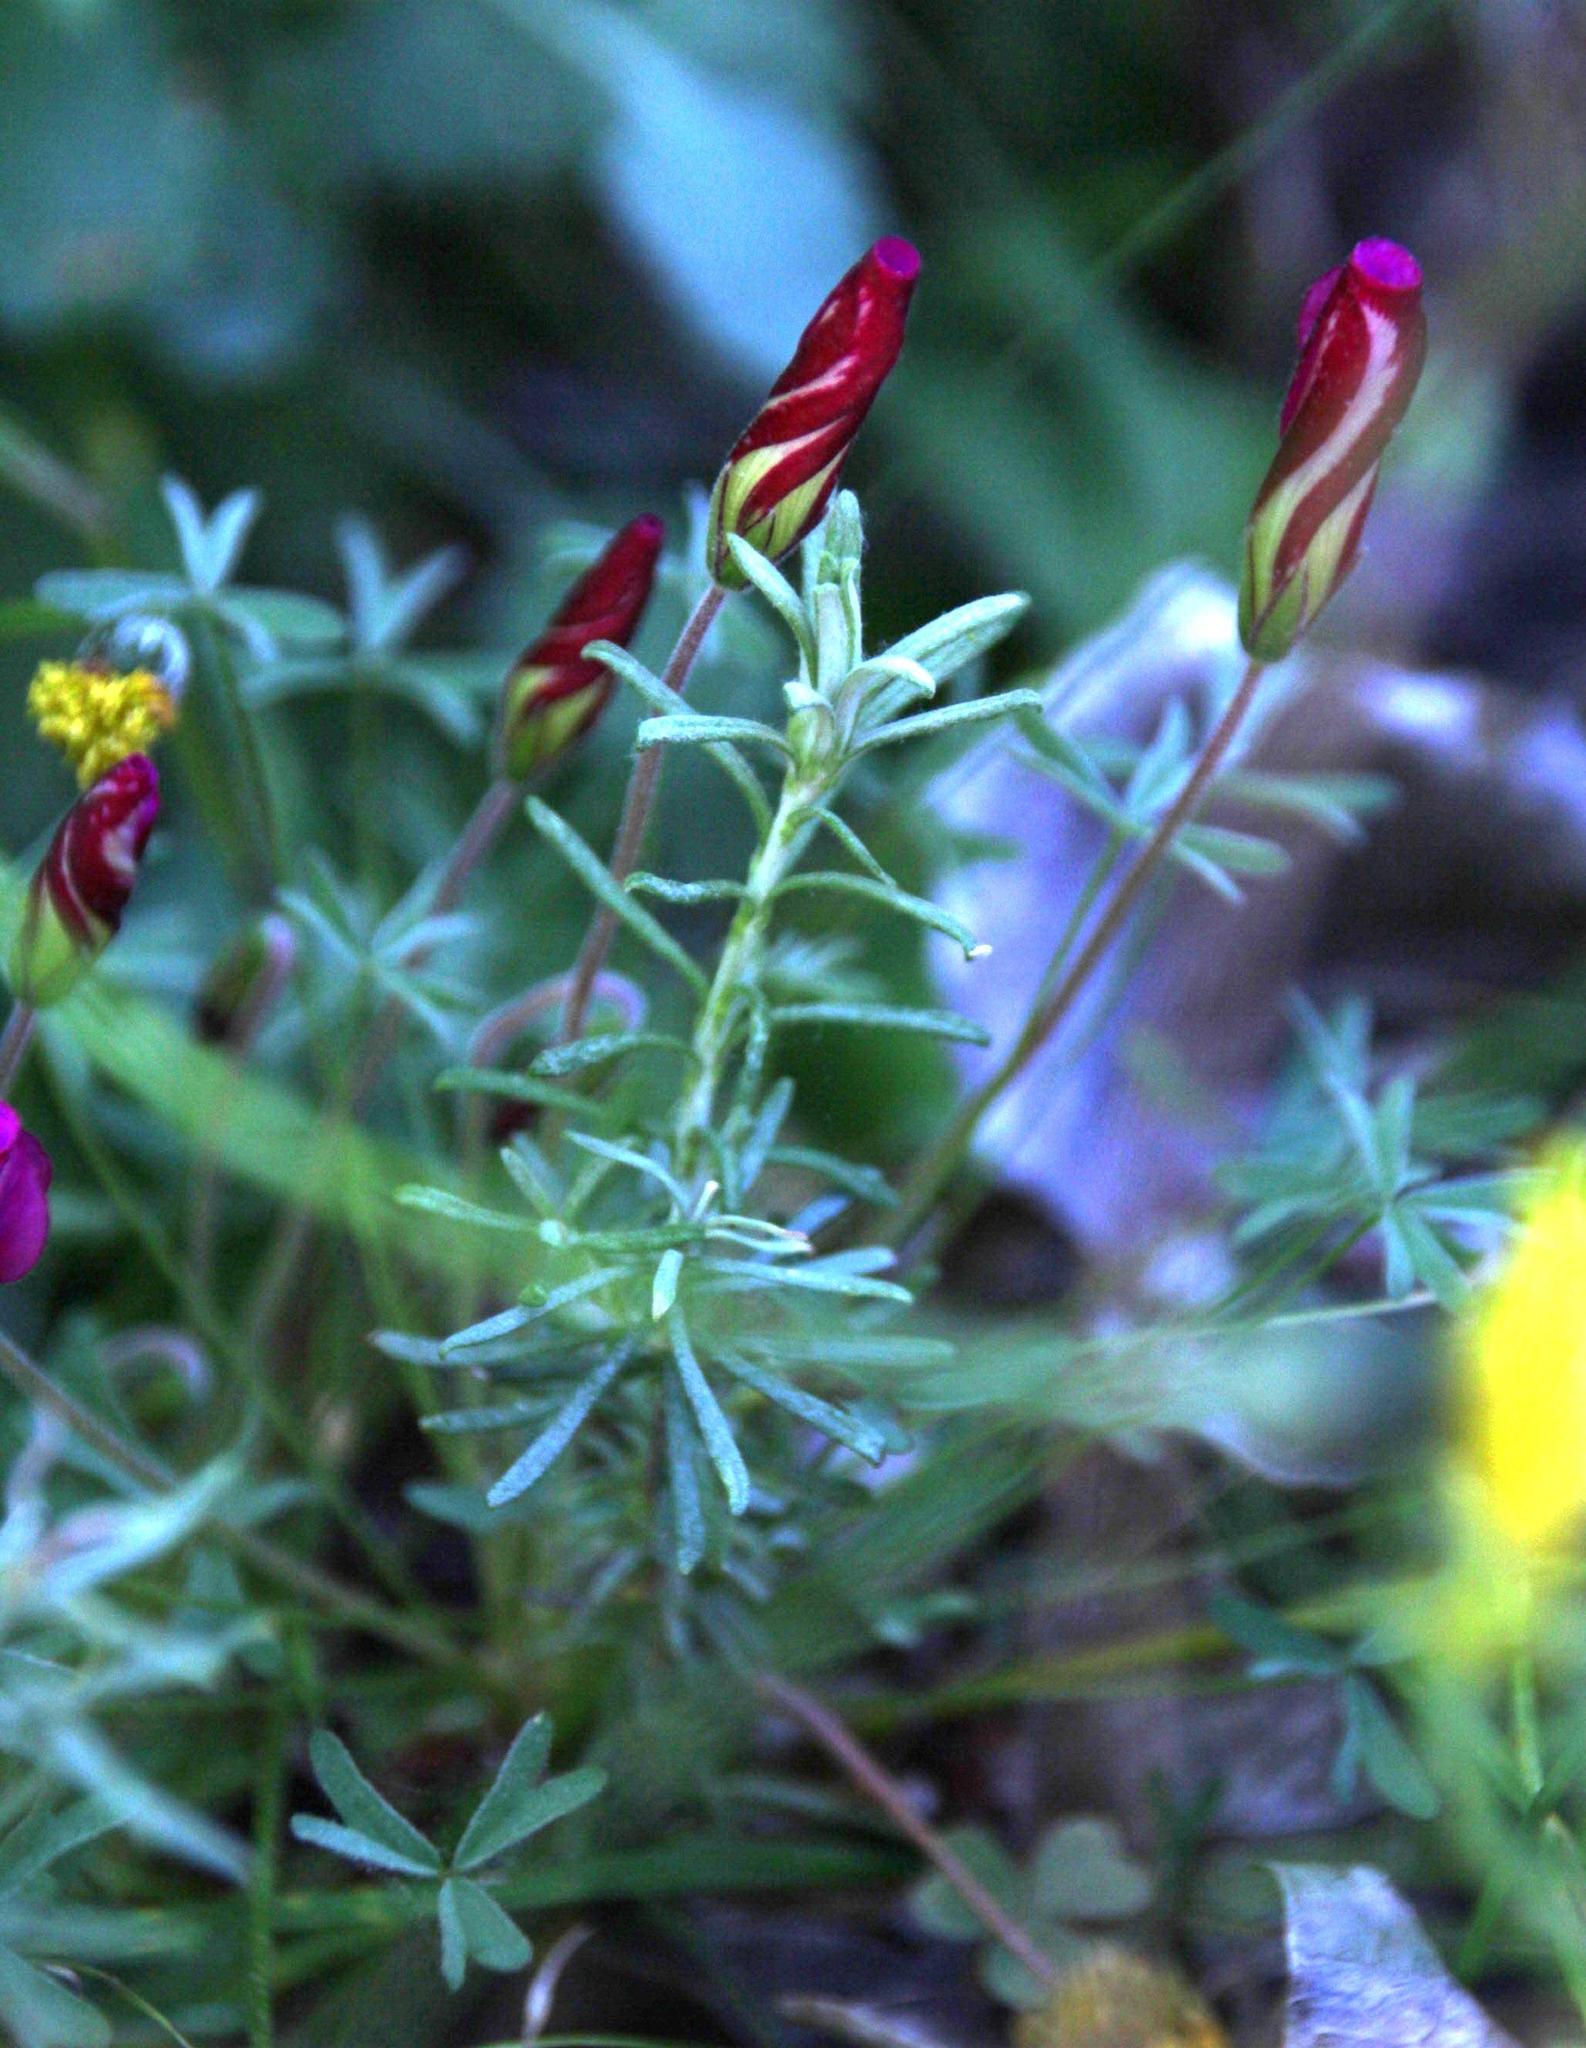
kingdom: Plantae
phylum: Tracheophyta
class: Magnoliopsida
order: Oxalidales
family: Oxalidaceae
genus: Oxalis
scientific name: Oxalis heterophylla
